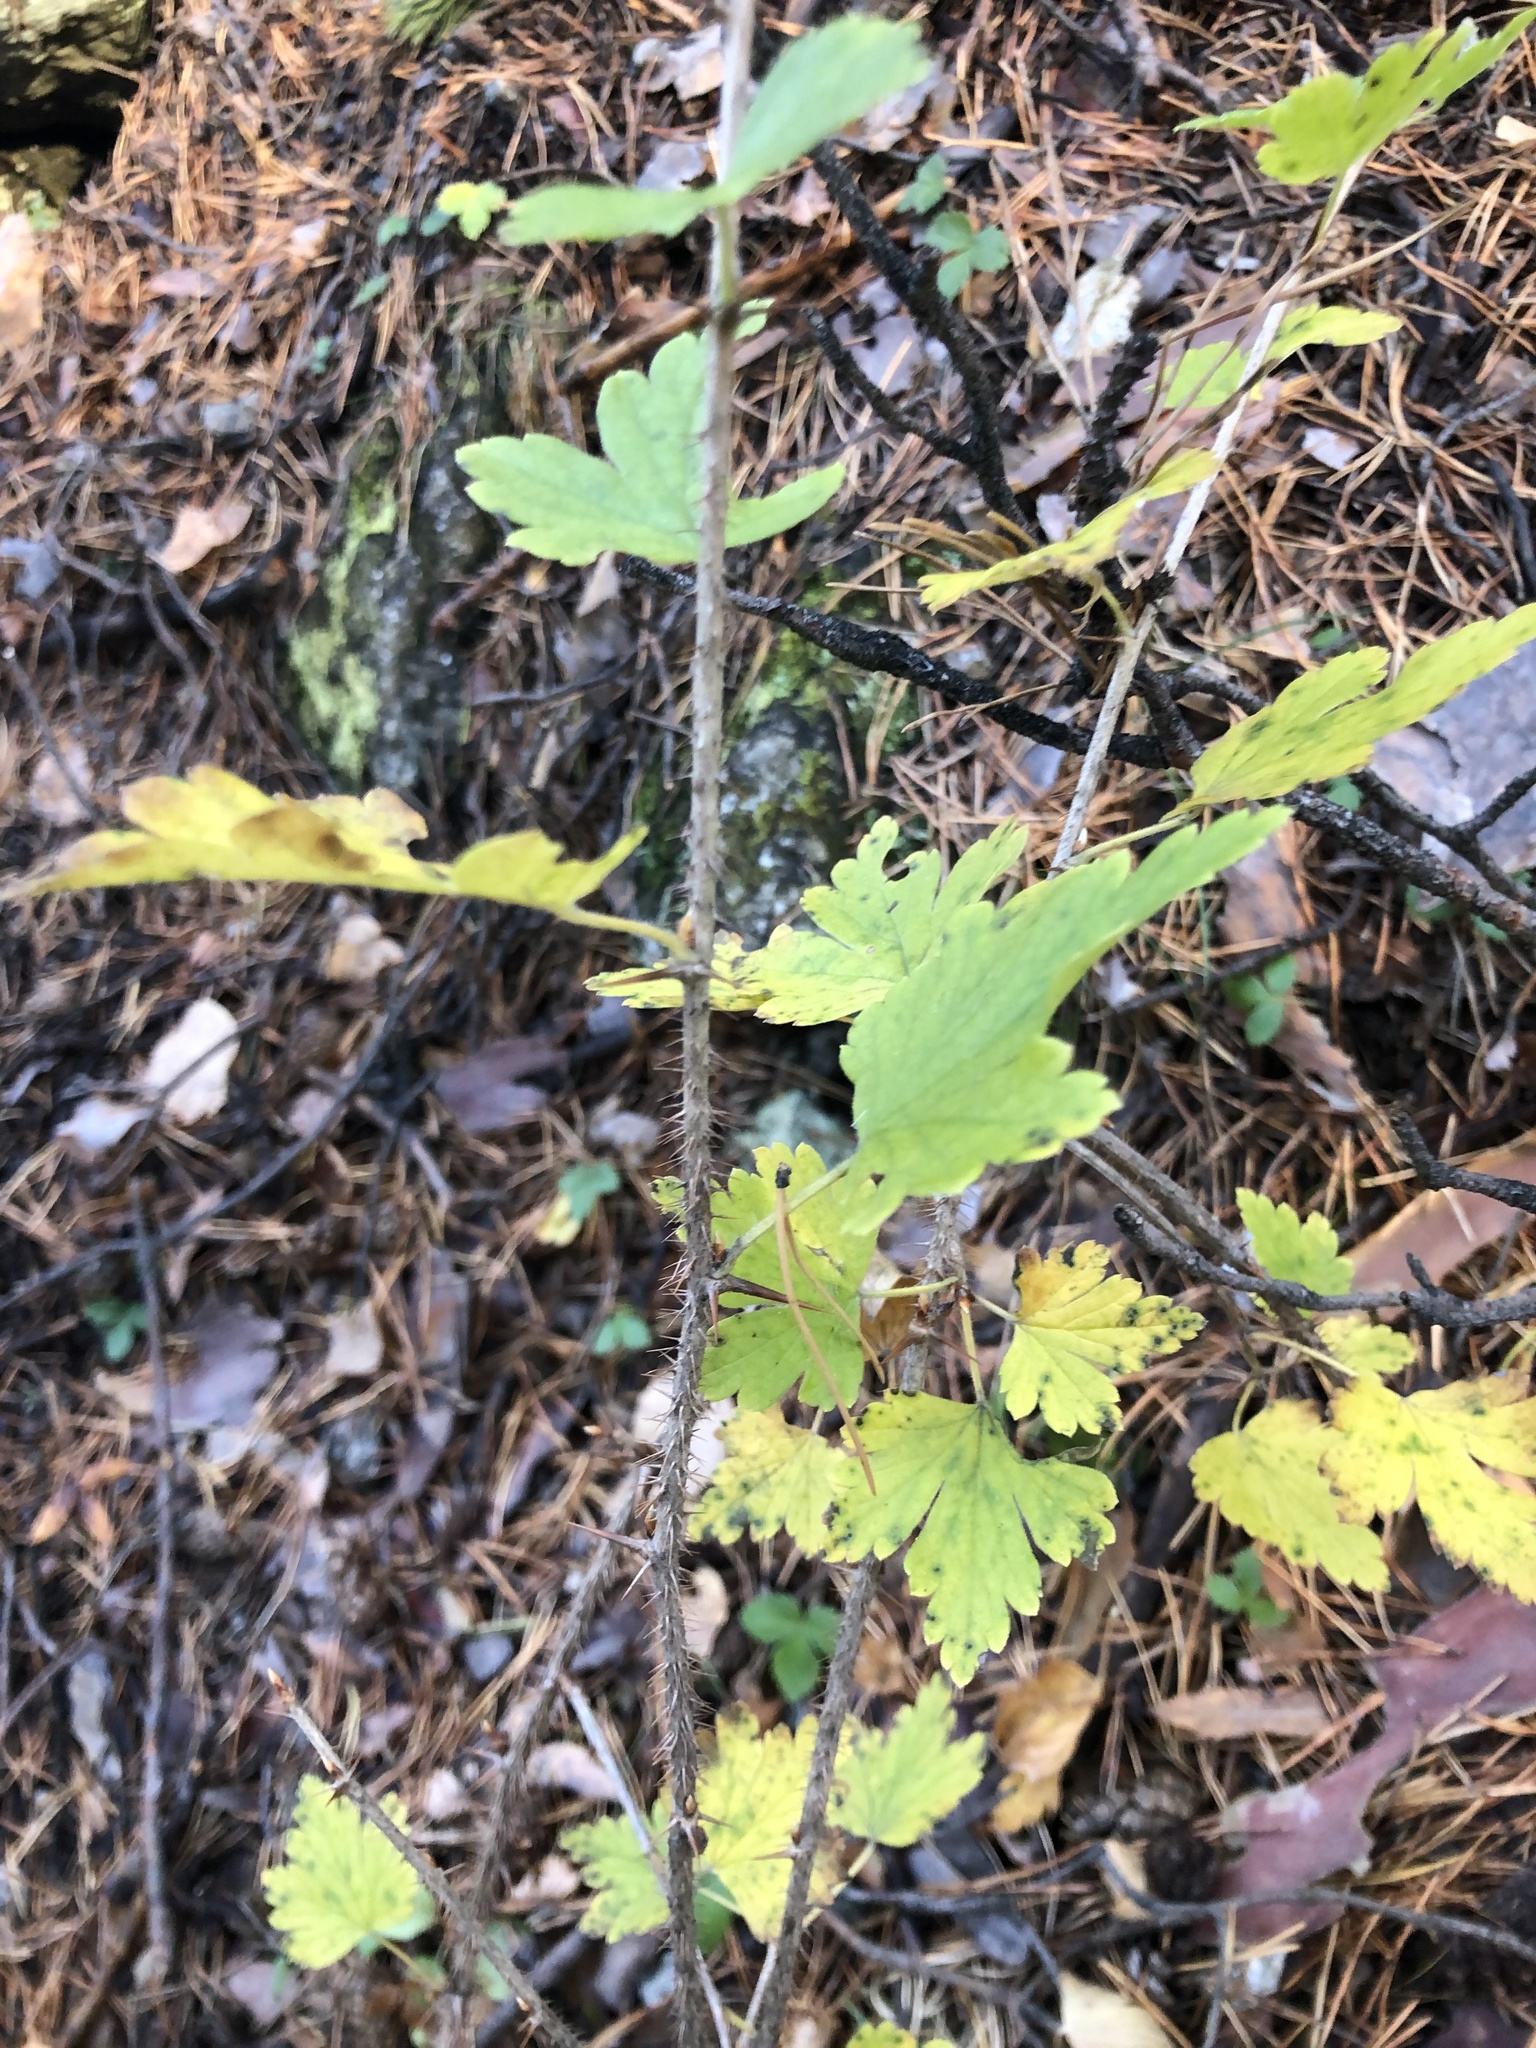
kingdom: Plantae
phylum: Tracheophyta
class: Magnoliopsida
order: Saxifragales
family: Grossulariaceae
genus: Ribes
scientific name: Ribes uva-crispa
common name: Gooseberry
